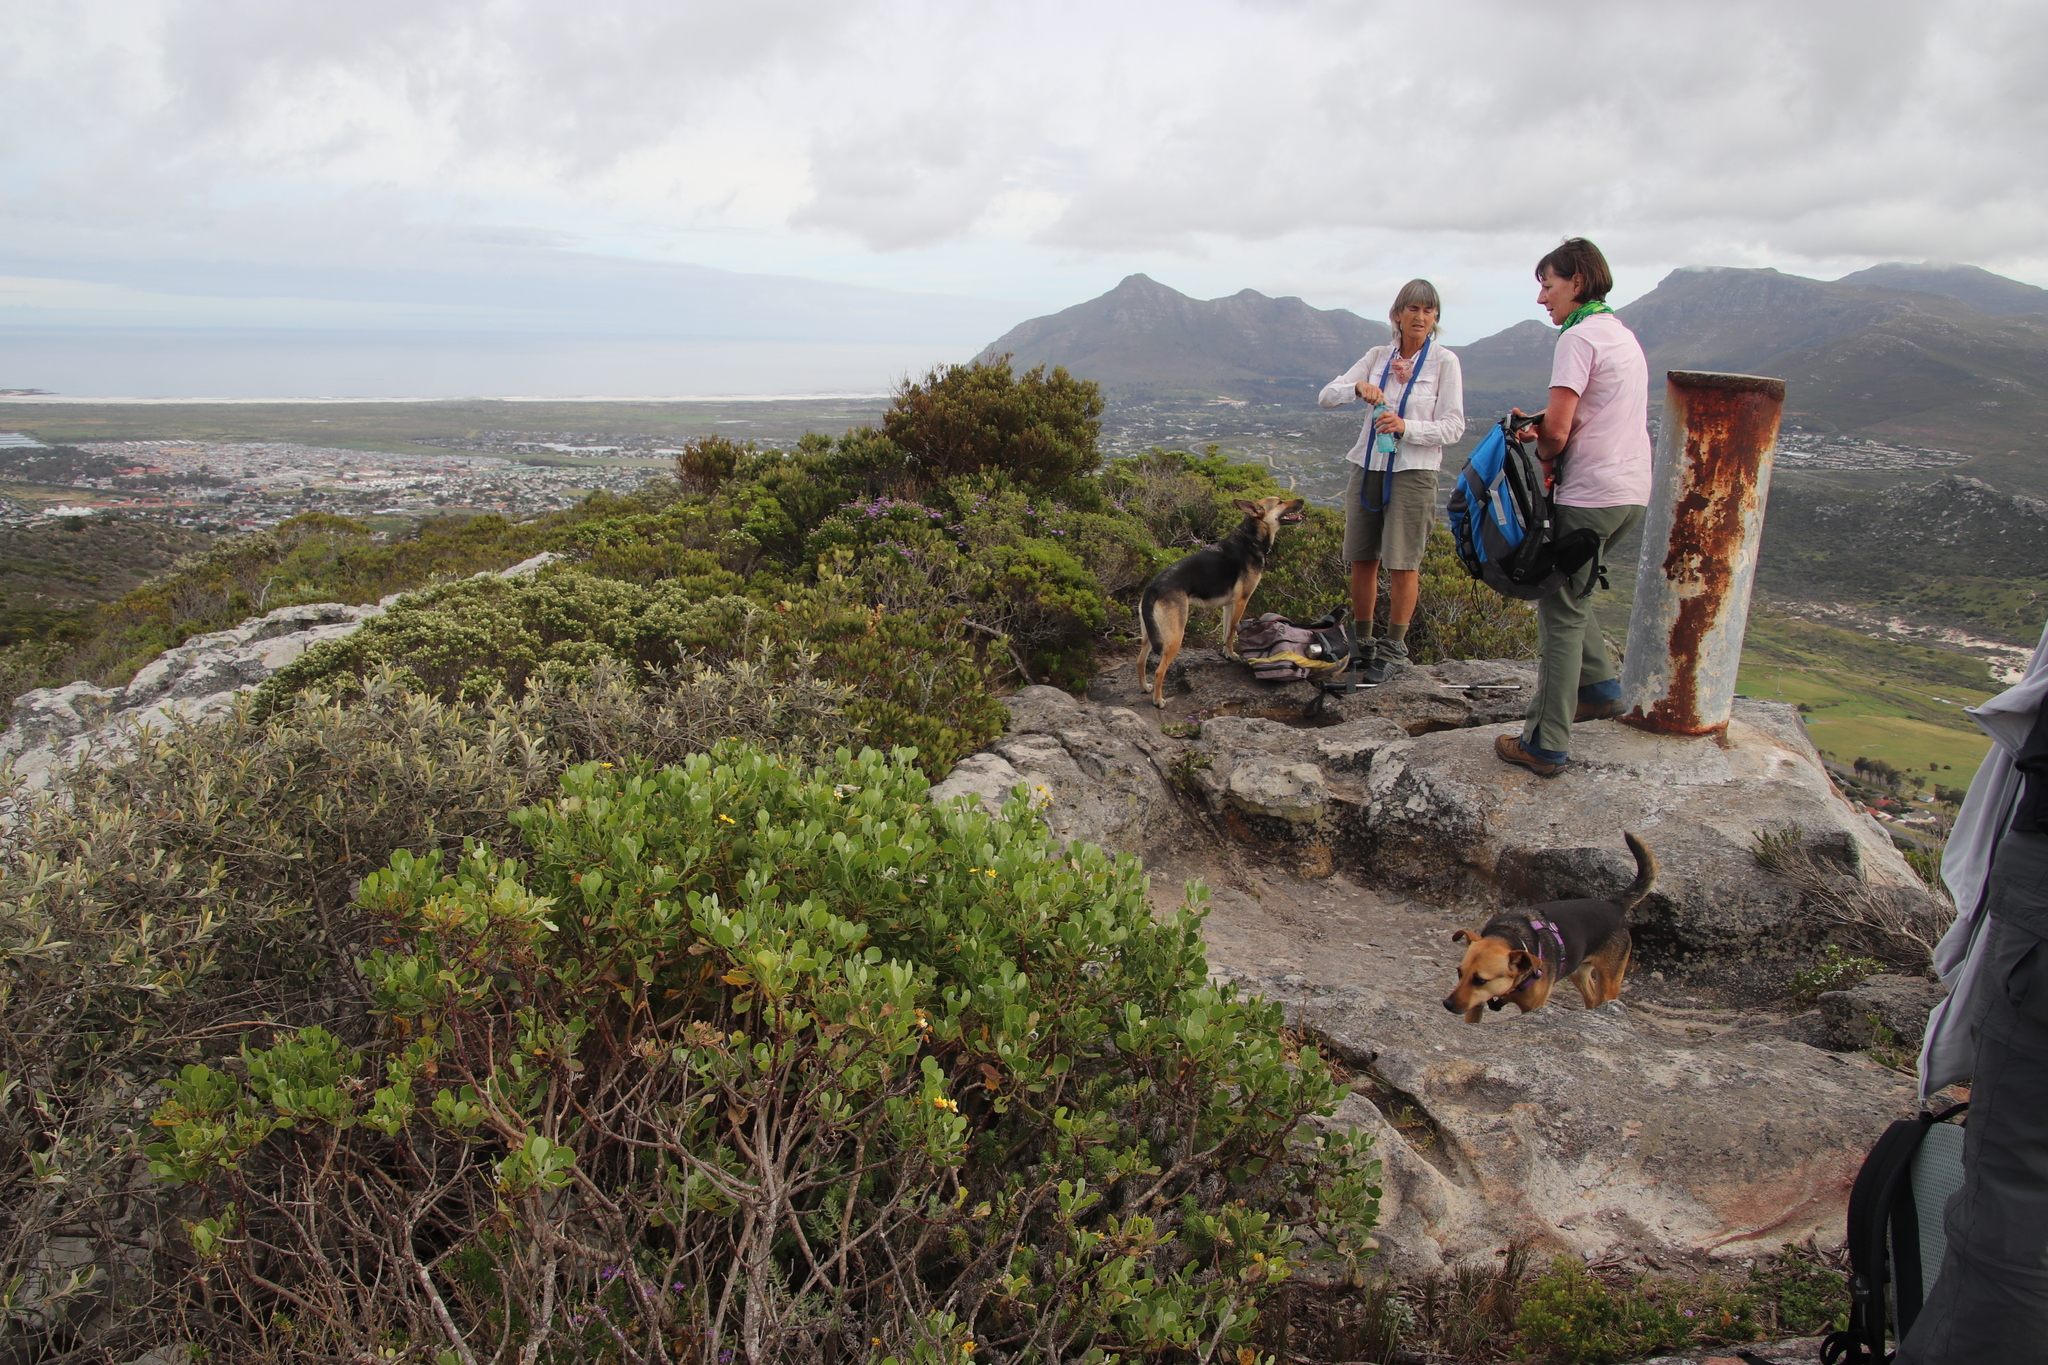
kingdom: Plantae
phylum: Tracheophyta
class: Magnoliopsida
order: Fabales
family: Fabaceae
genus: Acacia
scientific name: Acacia cyclops
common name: Coastal wattle
